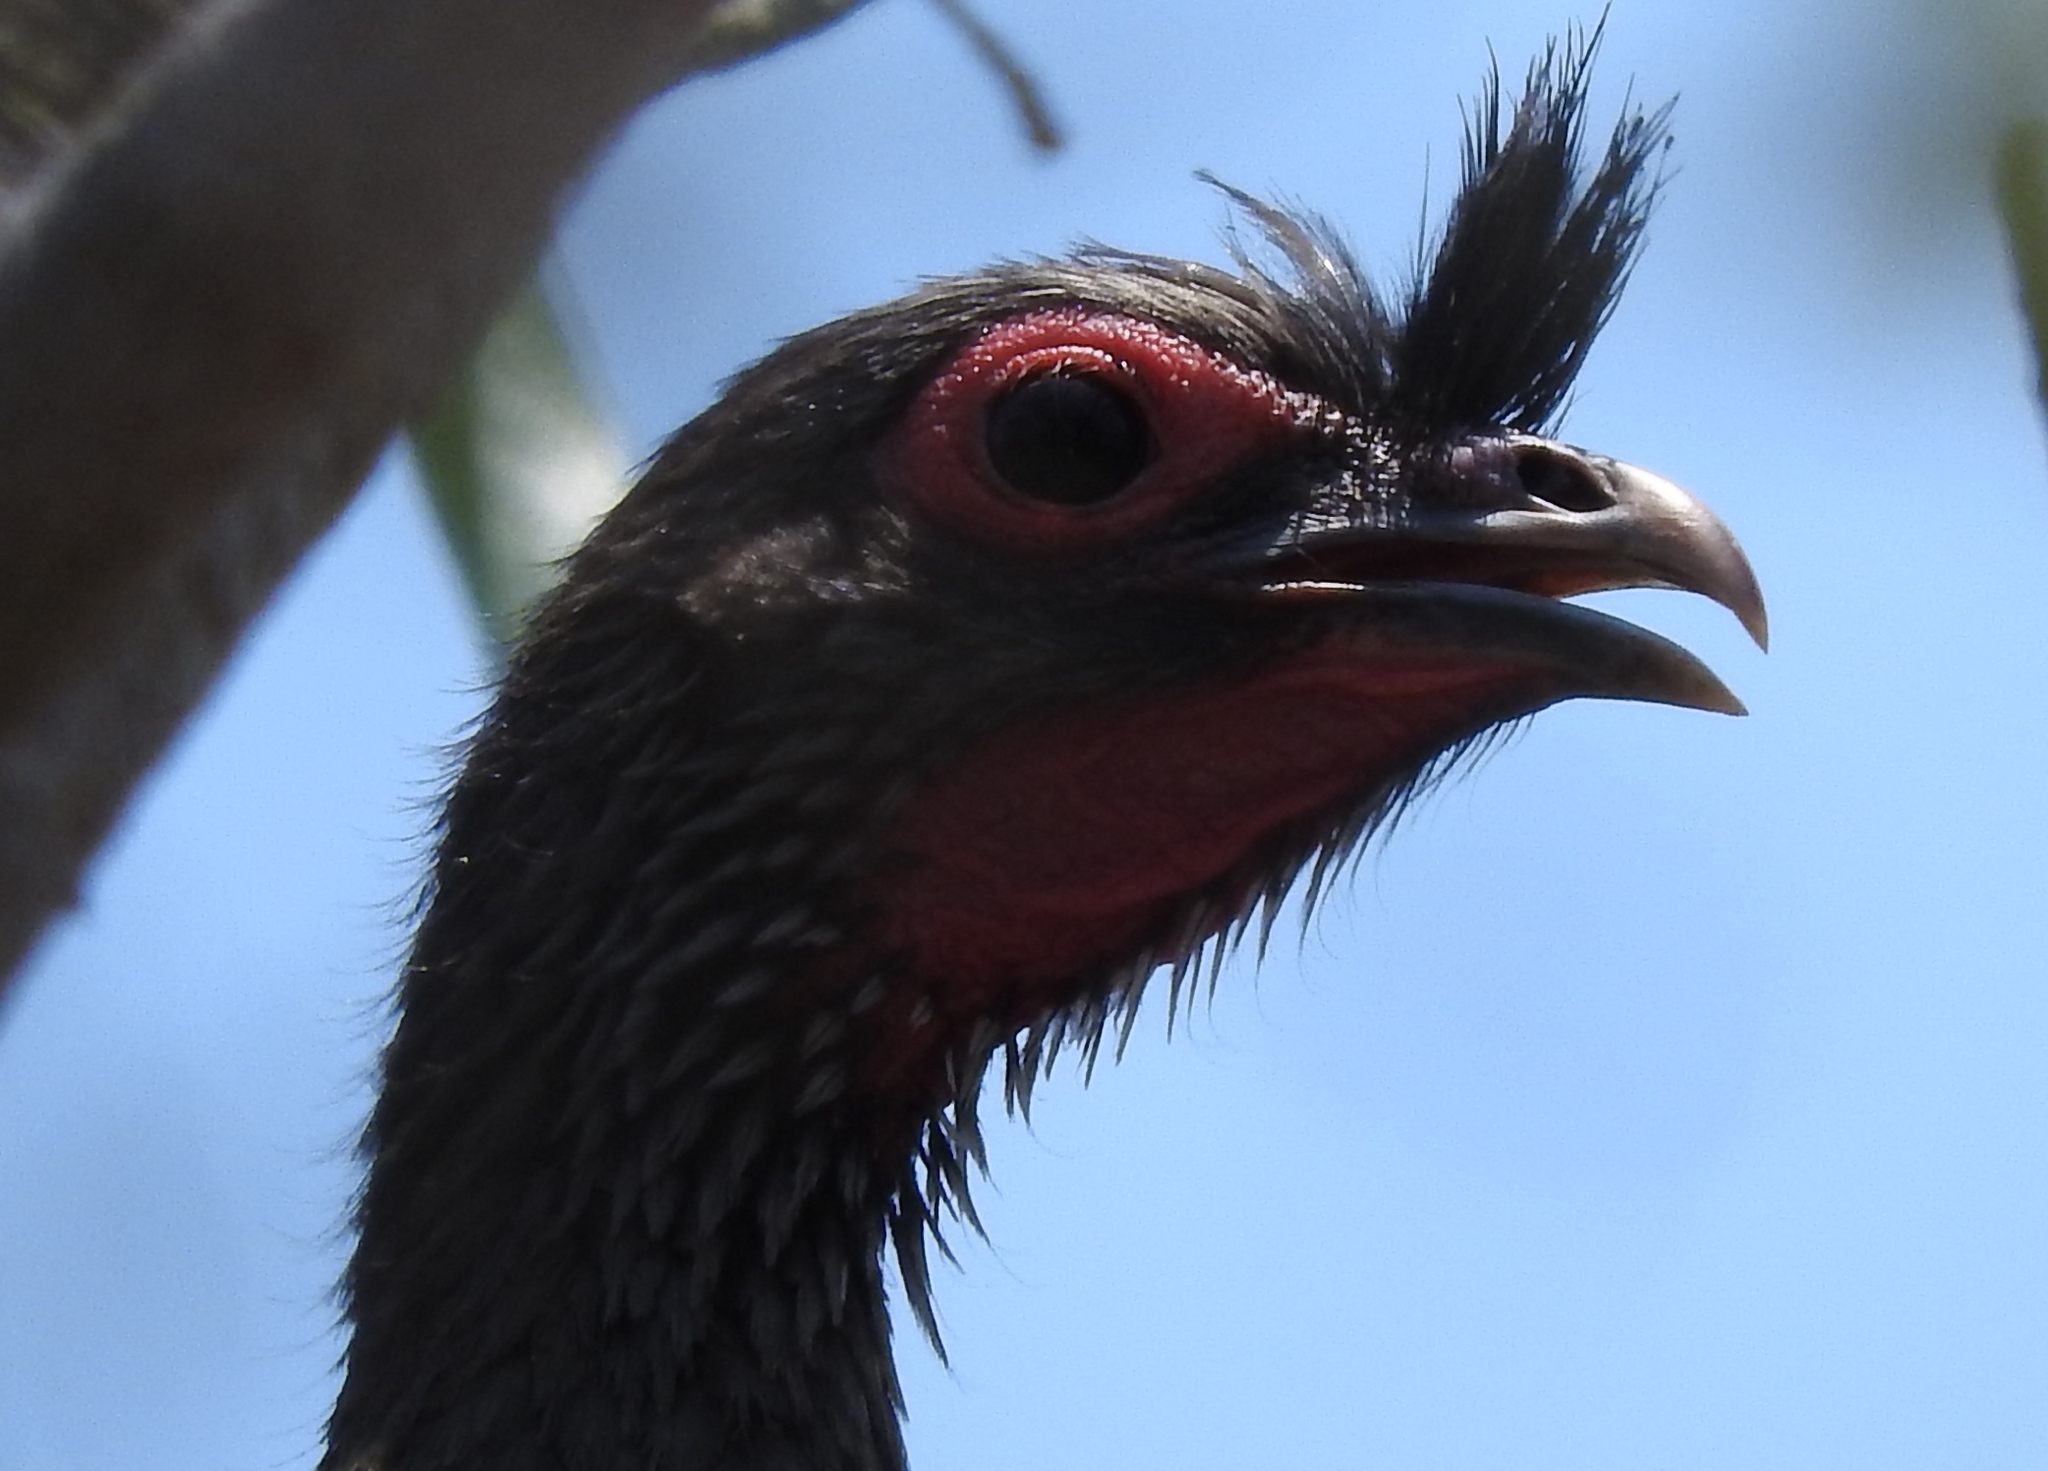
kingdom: Animalia
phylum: Chordata
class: Aves
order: Galliformes
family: Cracidae
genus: Ortalis
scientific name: Ortalis wagleri
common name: Rufous-bellied chachalaca
